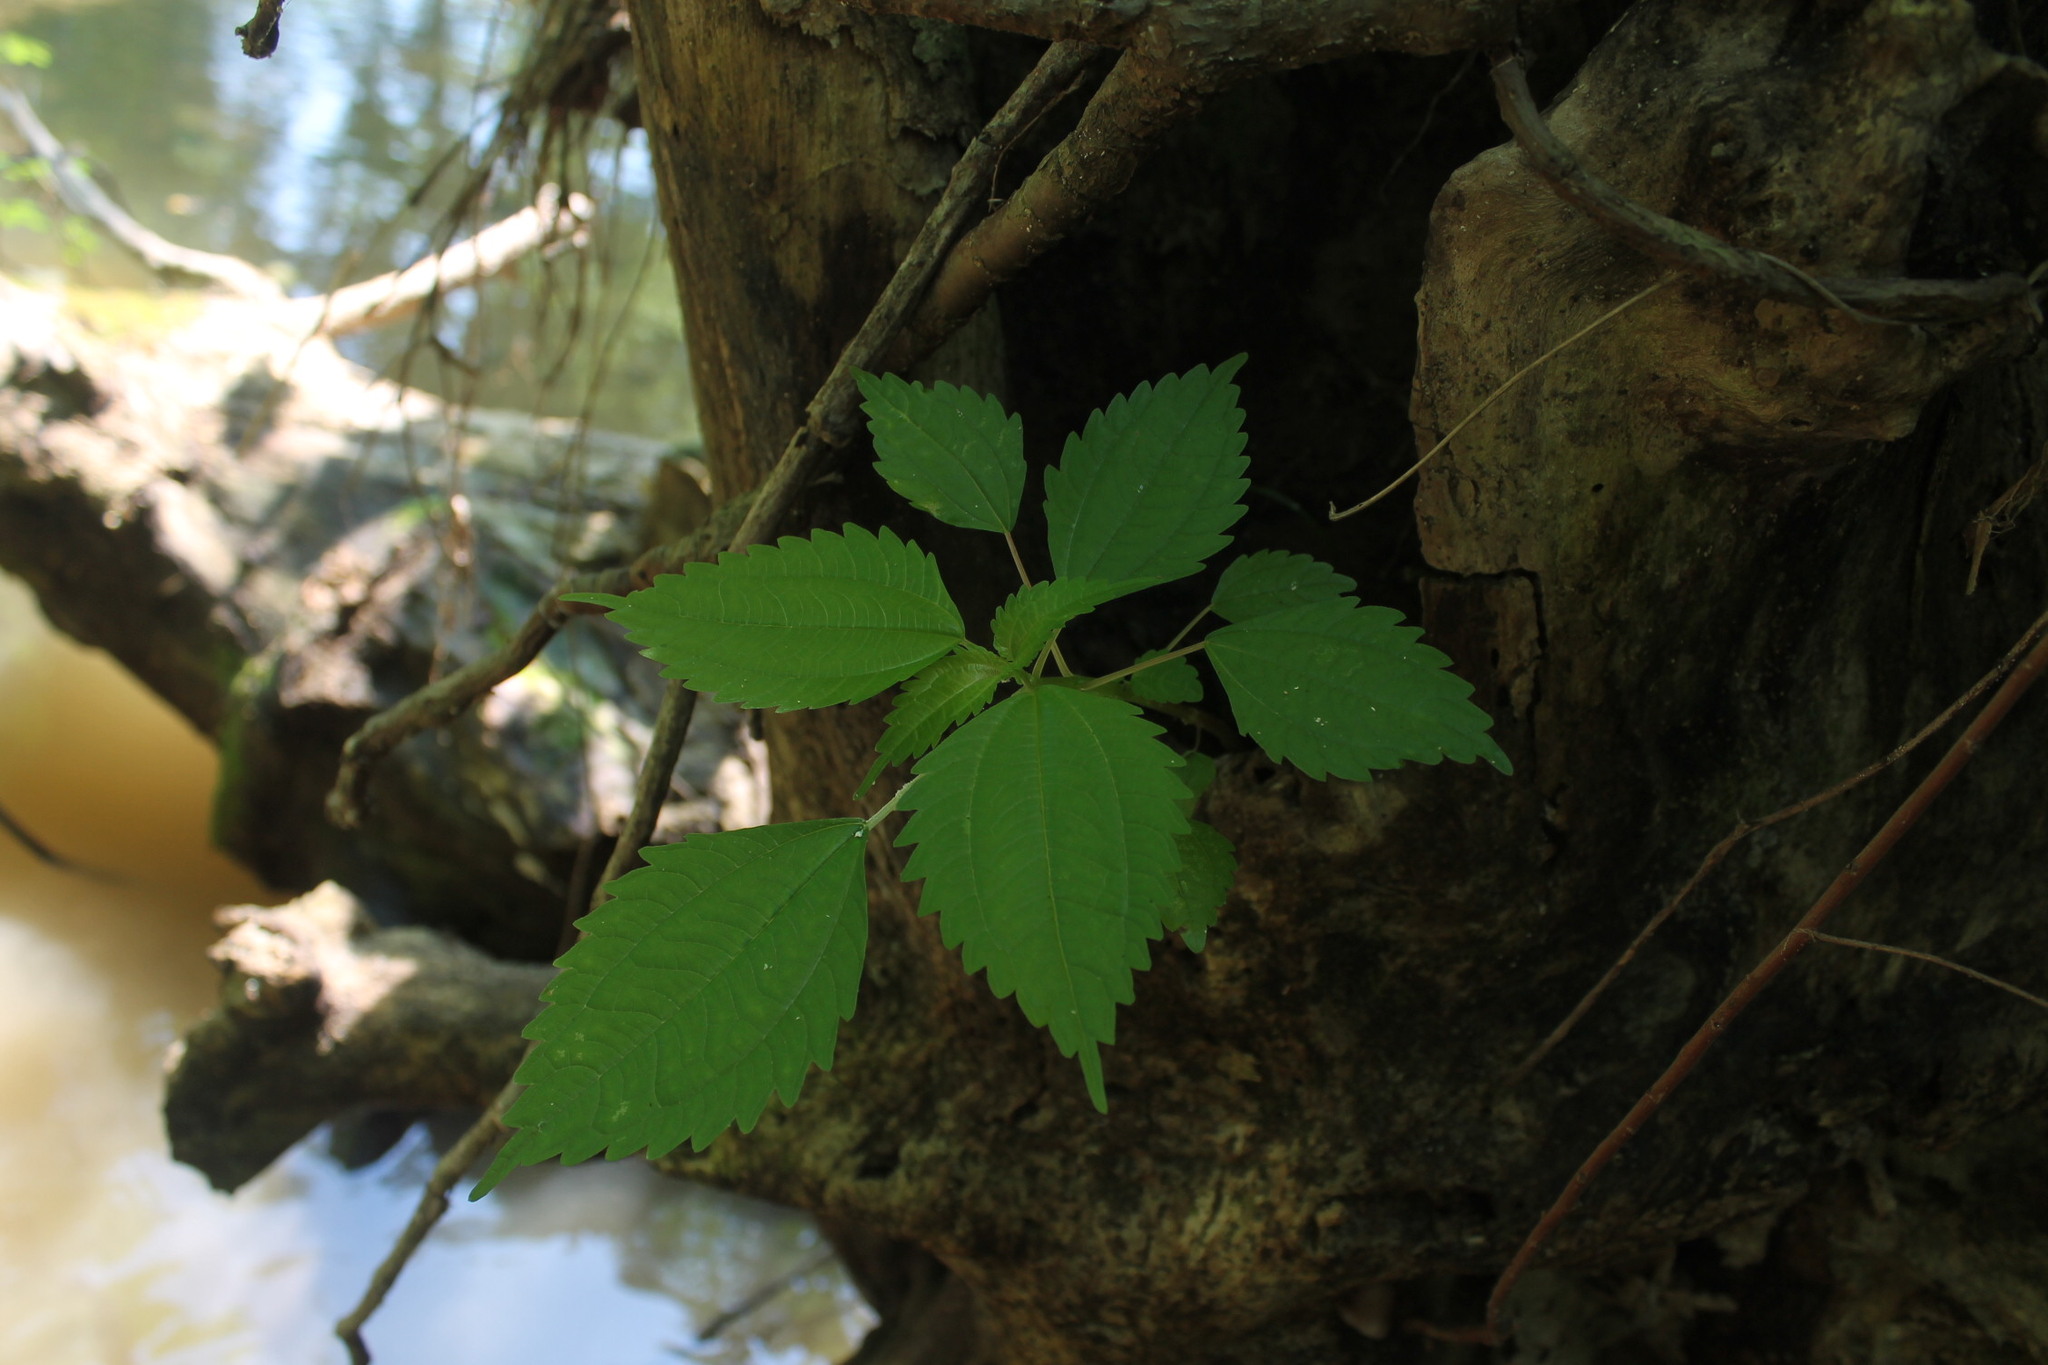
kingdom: Plantae
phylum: Tracheophyta
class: Magnoliopsida
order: Rosales
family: Urticaceae
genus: Pilea
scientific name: Pilea pumila
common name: Clearweed
